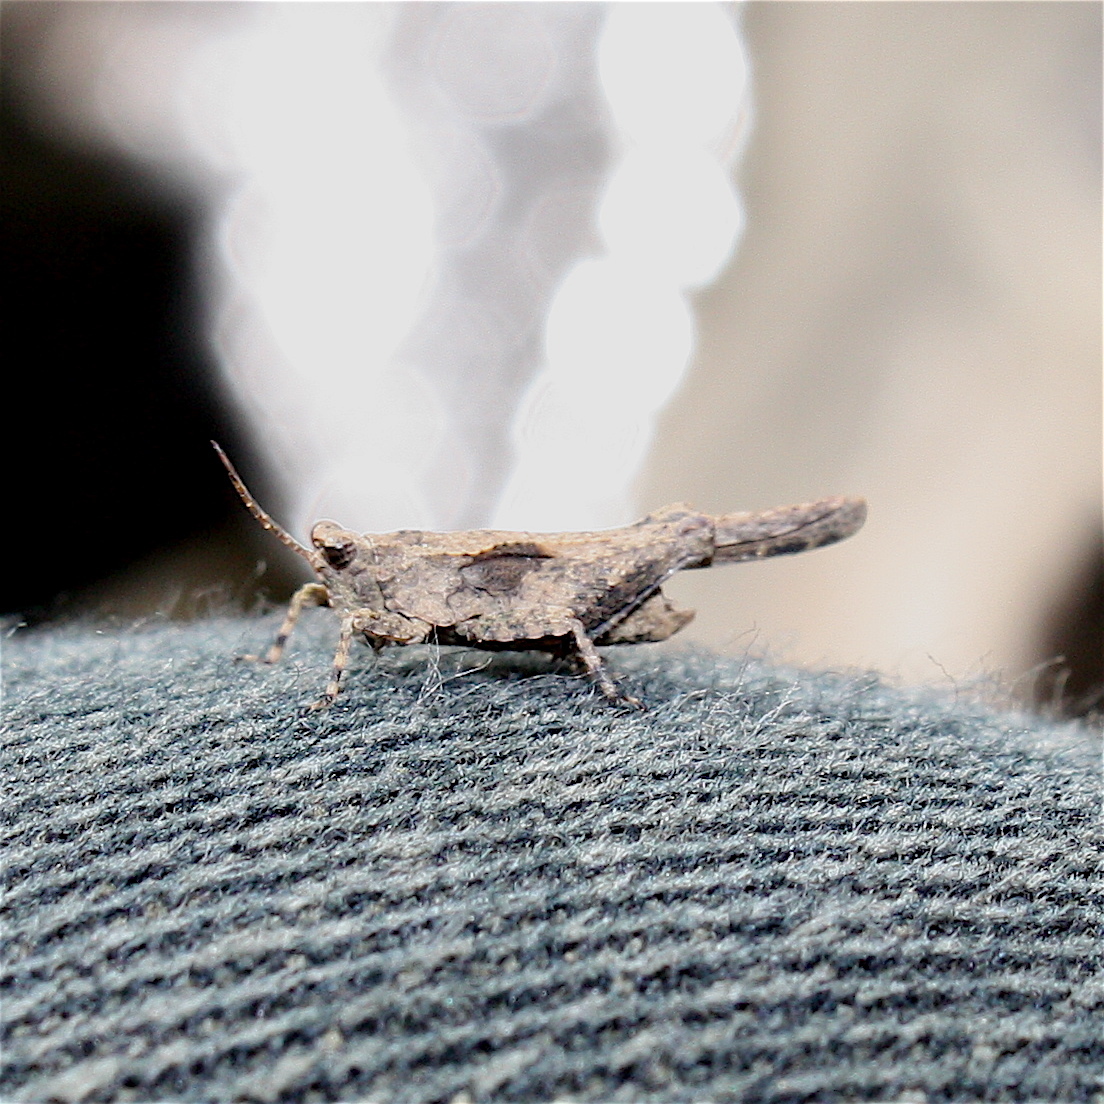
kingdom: Animalia
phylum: Arthropoda
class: Insecta
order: Orthoptera
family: Tetrigidae
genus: Paratettix
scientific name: Paratettix cucullatus
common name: Hooded grouse locust
